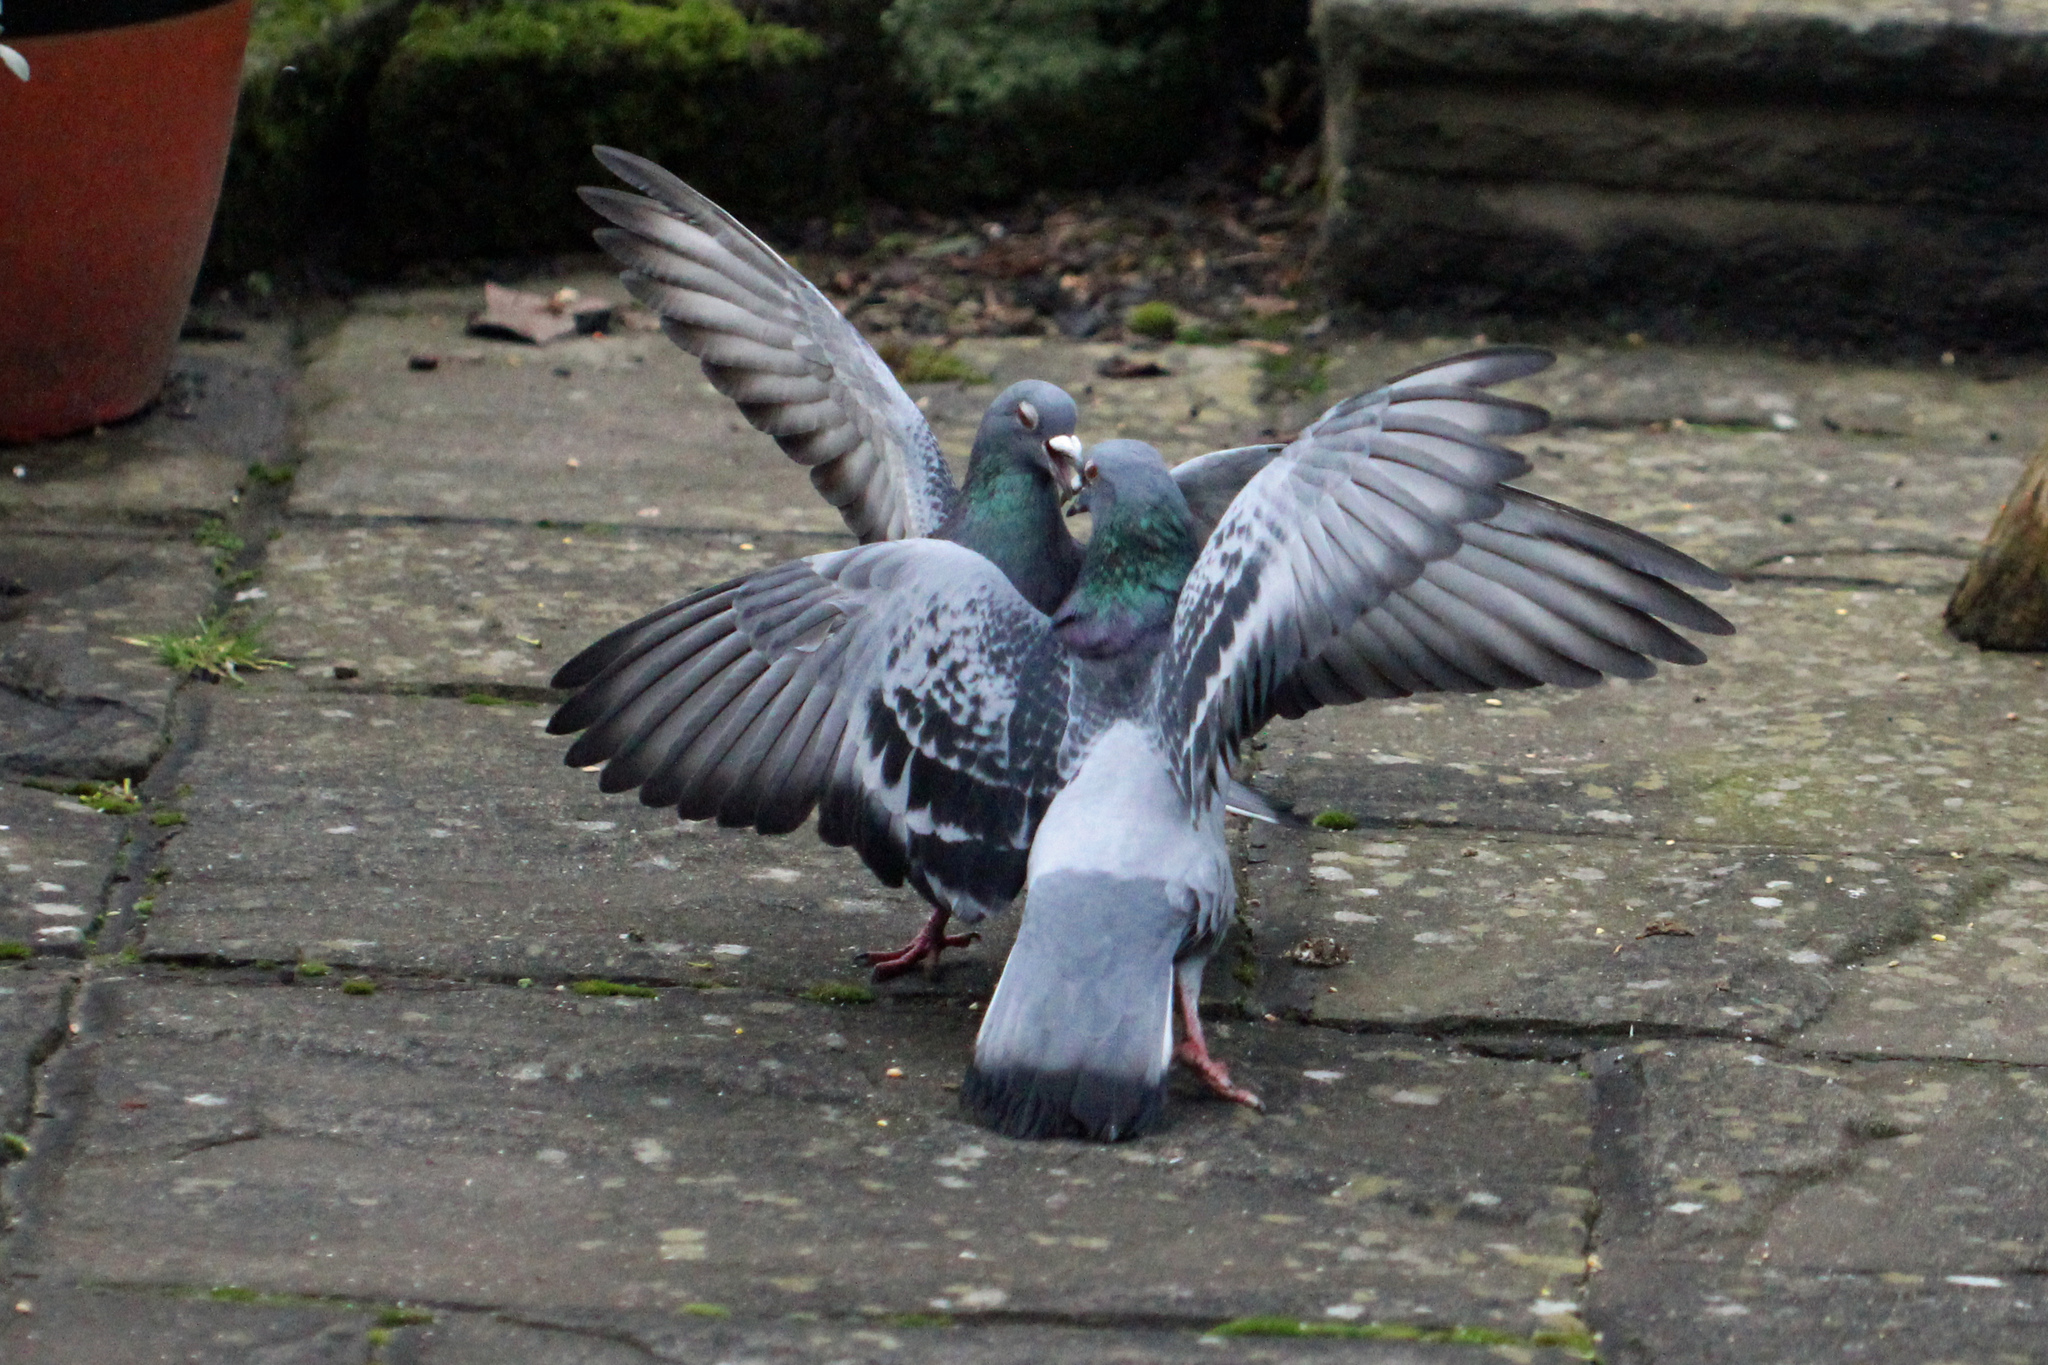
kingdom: Animalia
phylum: Chordata
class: Aves
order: Columbiformes
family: Columbidae
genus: Columba
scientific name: Columba livia
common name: Rock pigeon
